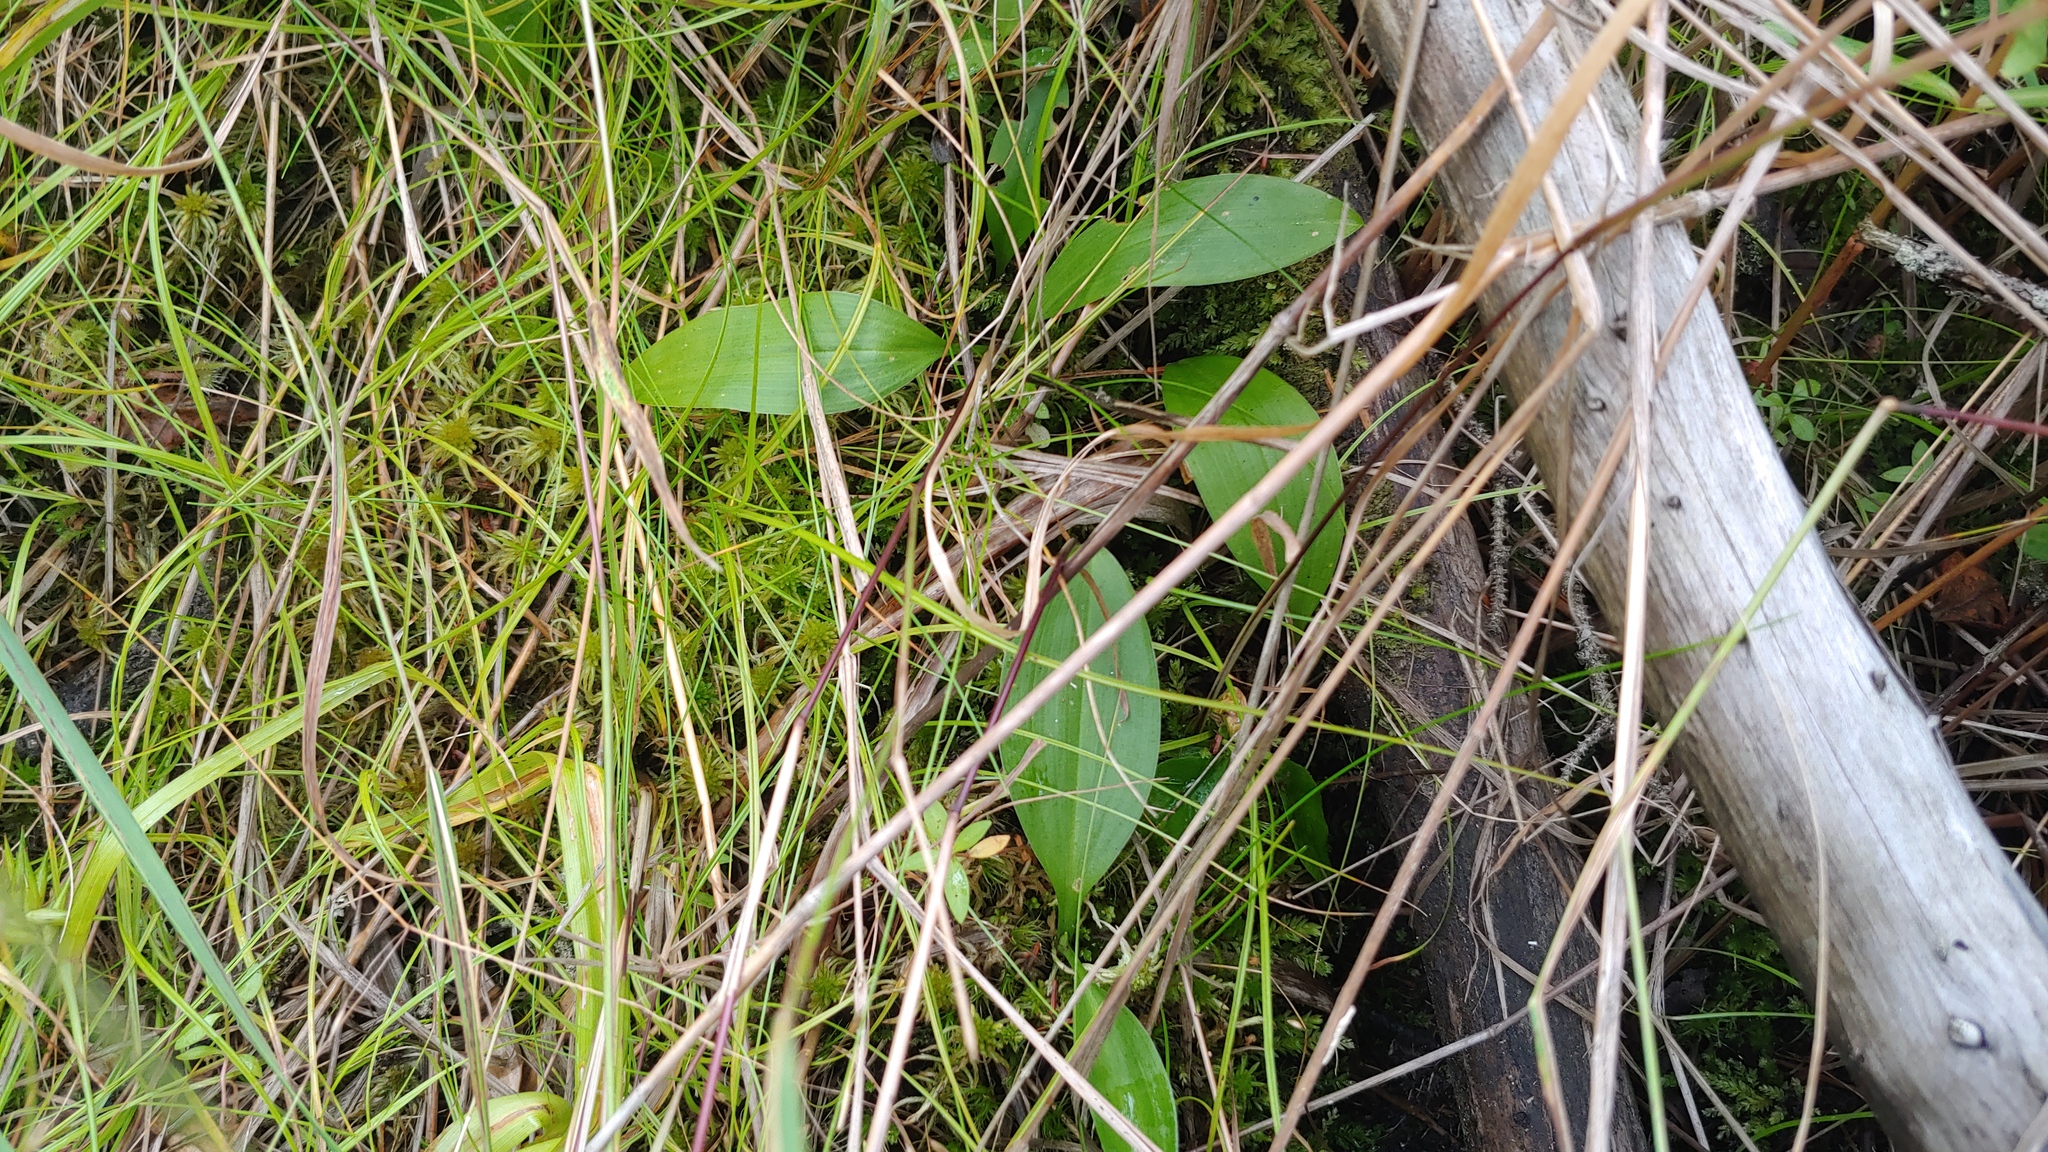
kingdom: Plantae
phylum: Tracheophyta
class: Liliopsida
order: Asparagales
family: Asparagaceae
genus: Maianthemum
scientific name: Maianthemum trifolium
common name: Swamp false solomon's seal
